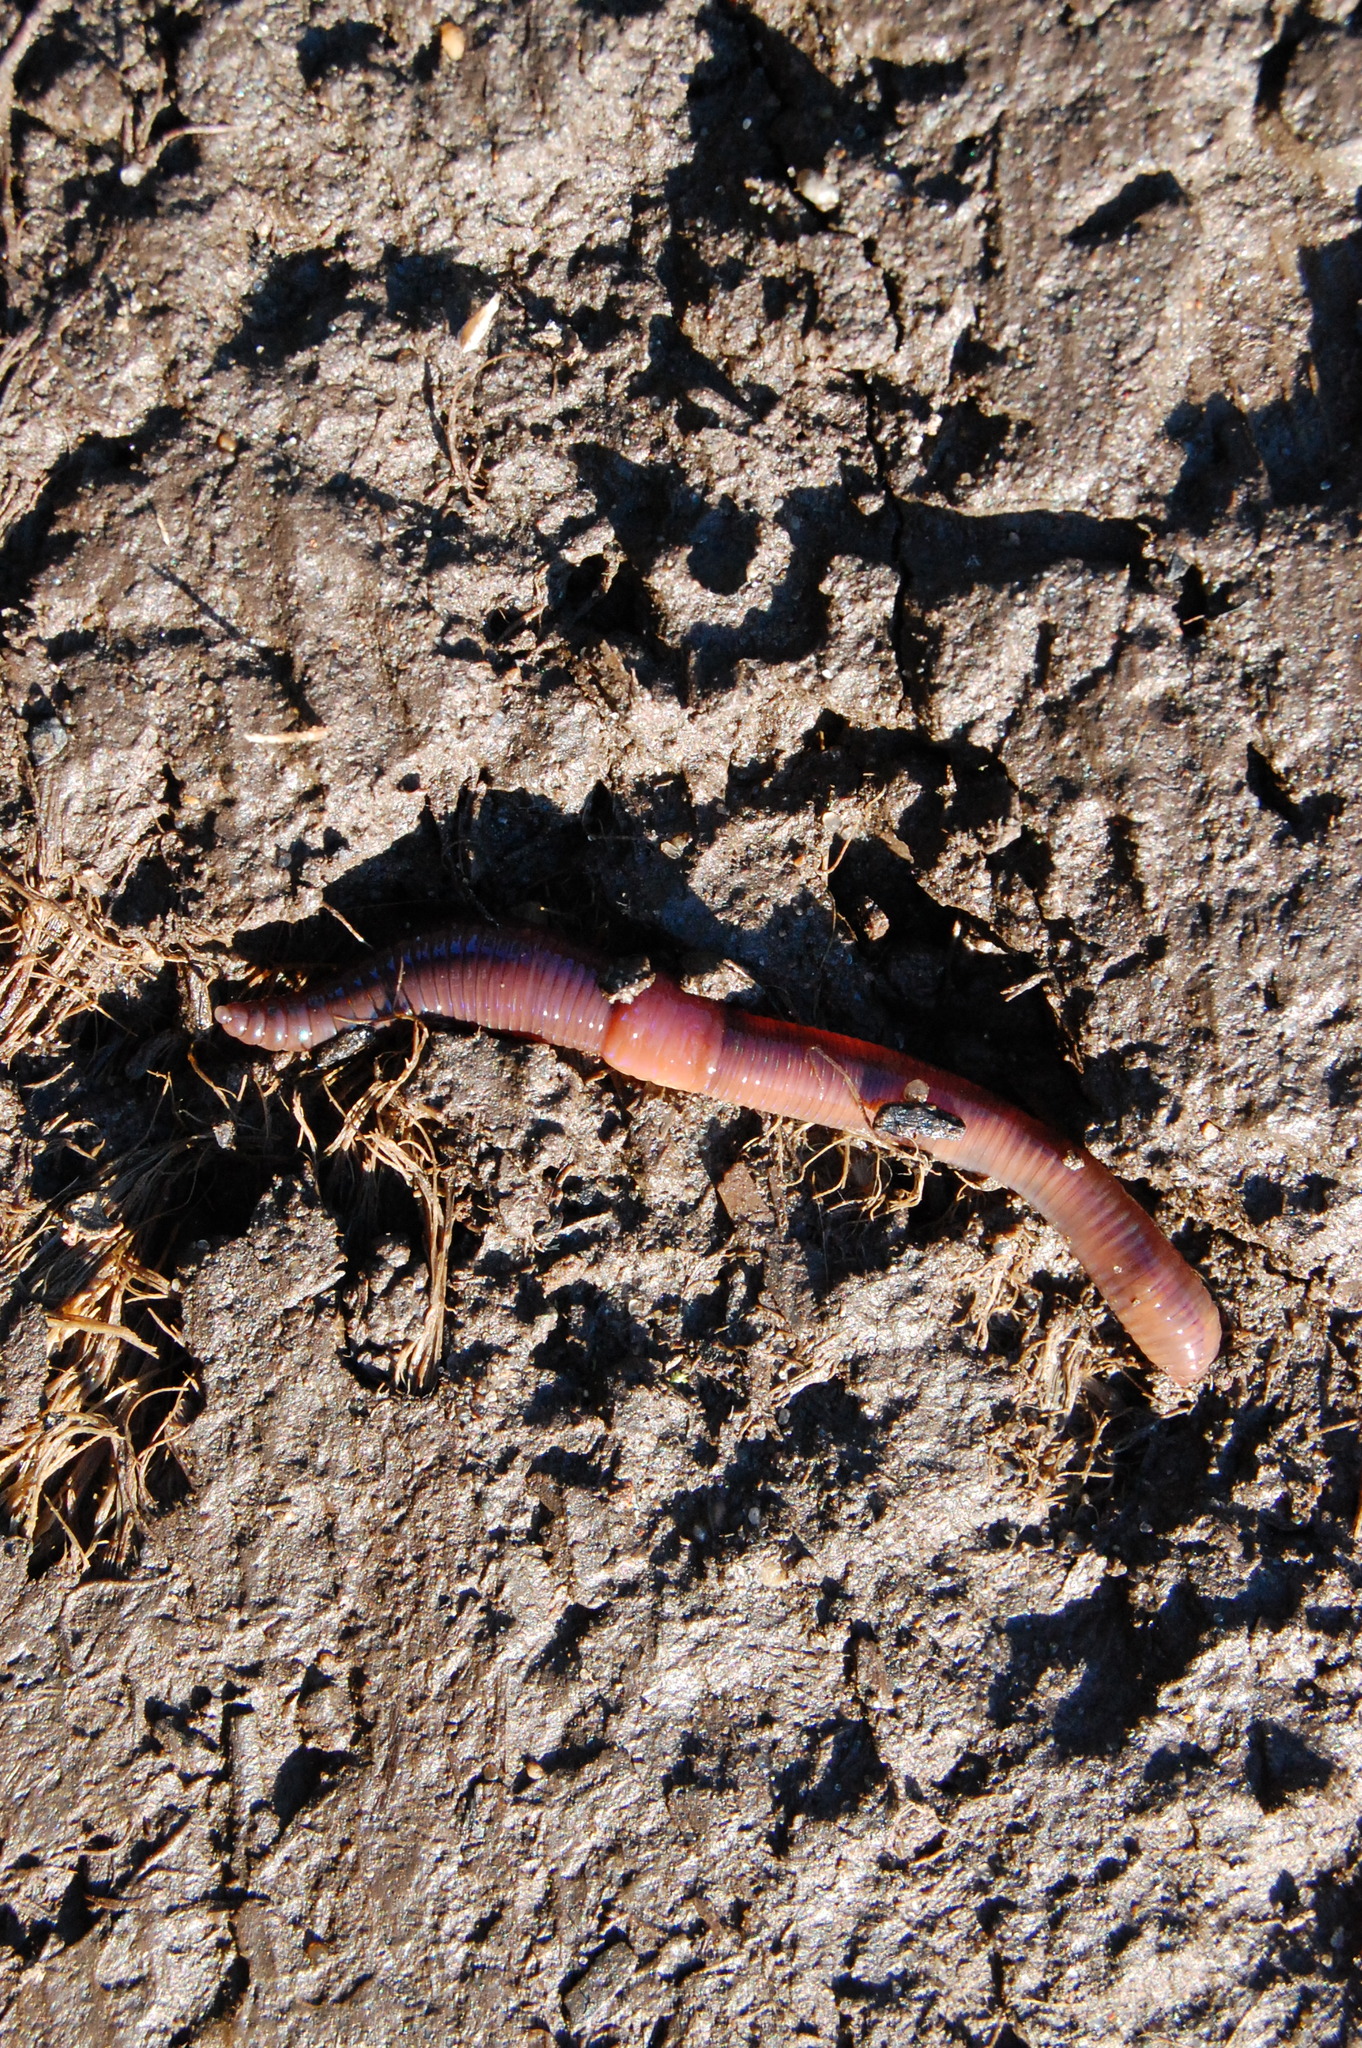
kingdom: Animalia
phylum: Annelida
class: Clitellata
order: Crassiclitellata
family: Lumbricidae
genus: Lumbricus
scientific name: Lumbricus rubellus
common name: Red worm
